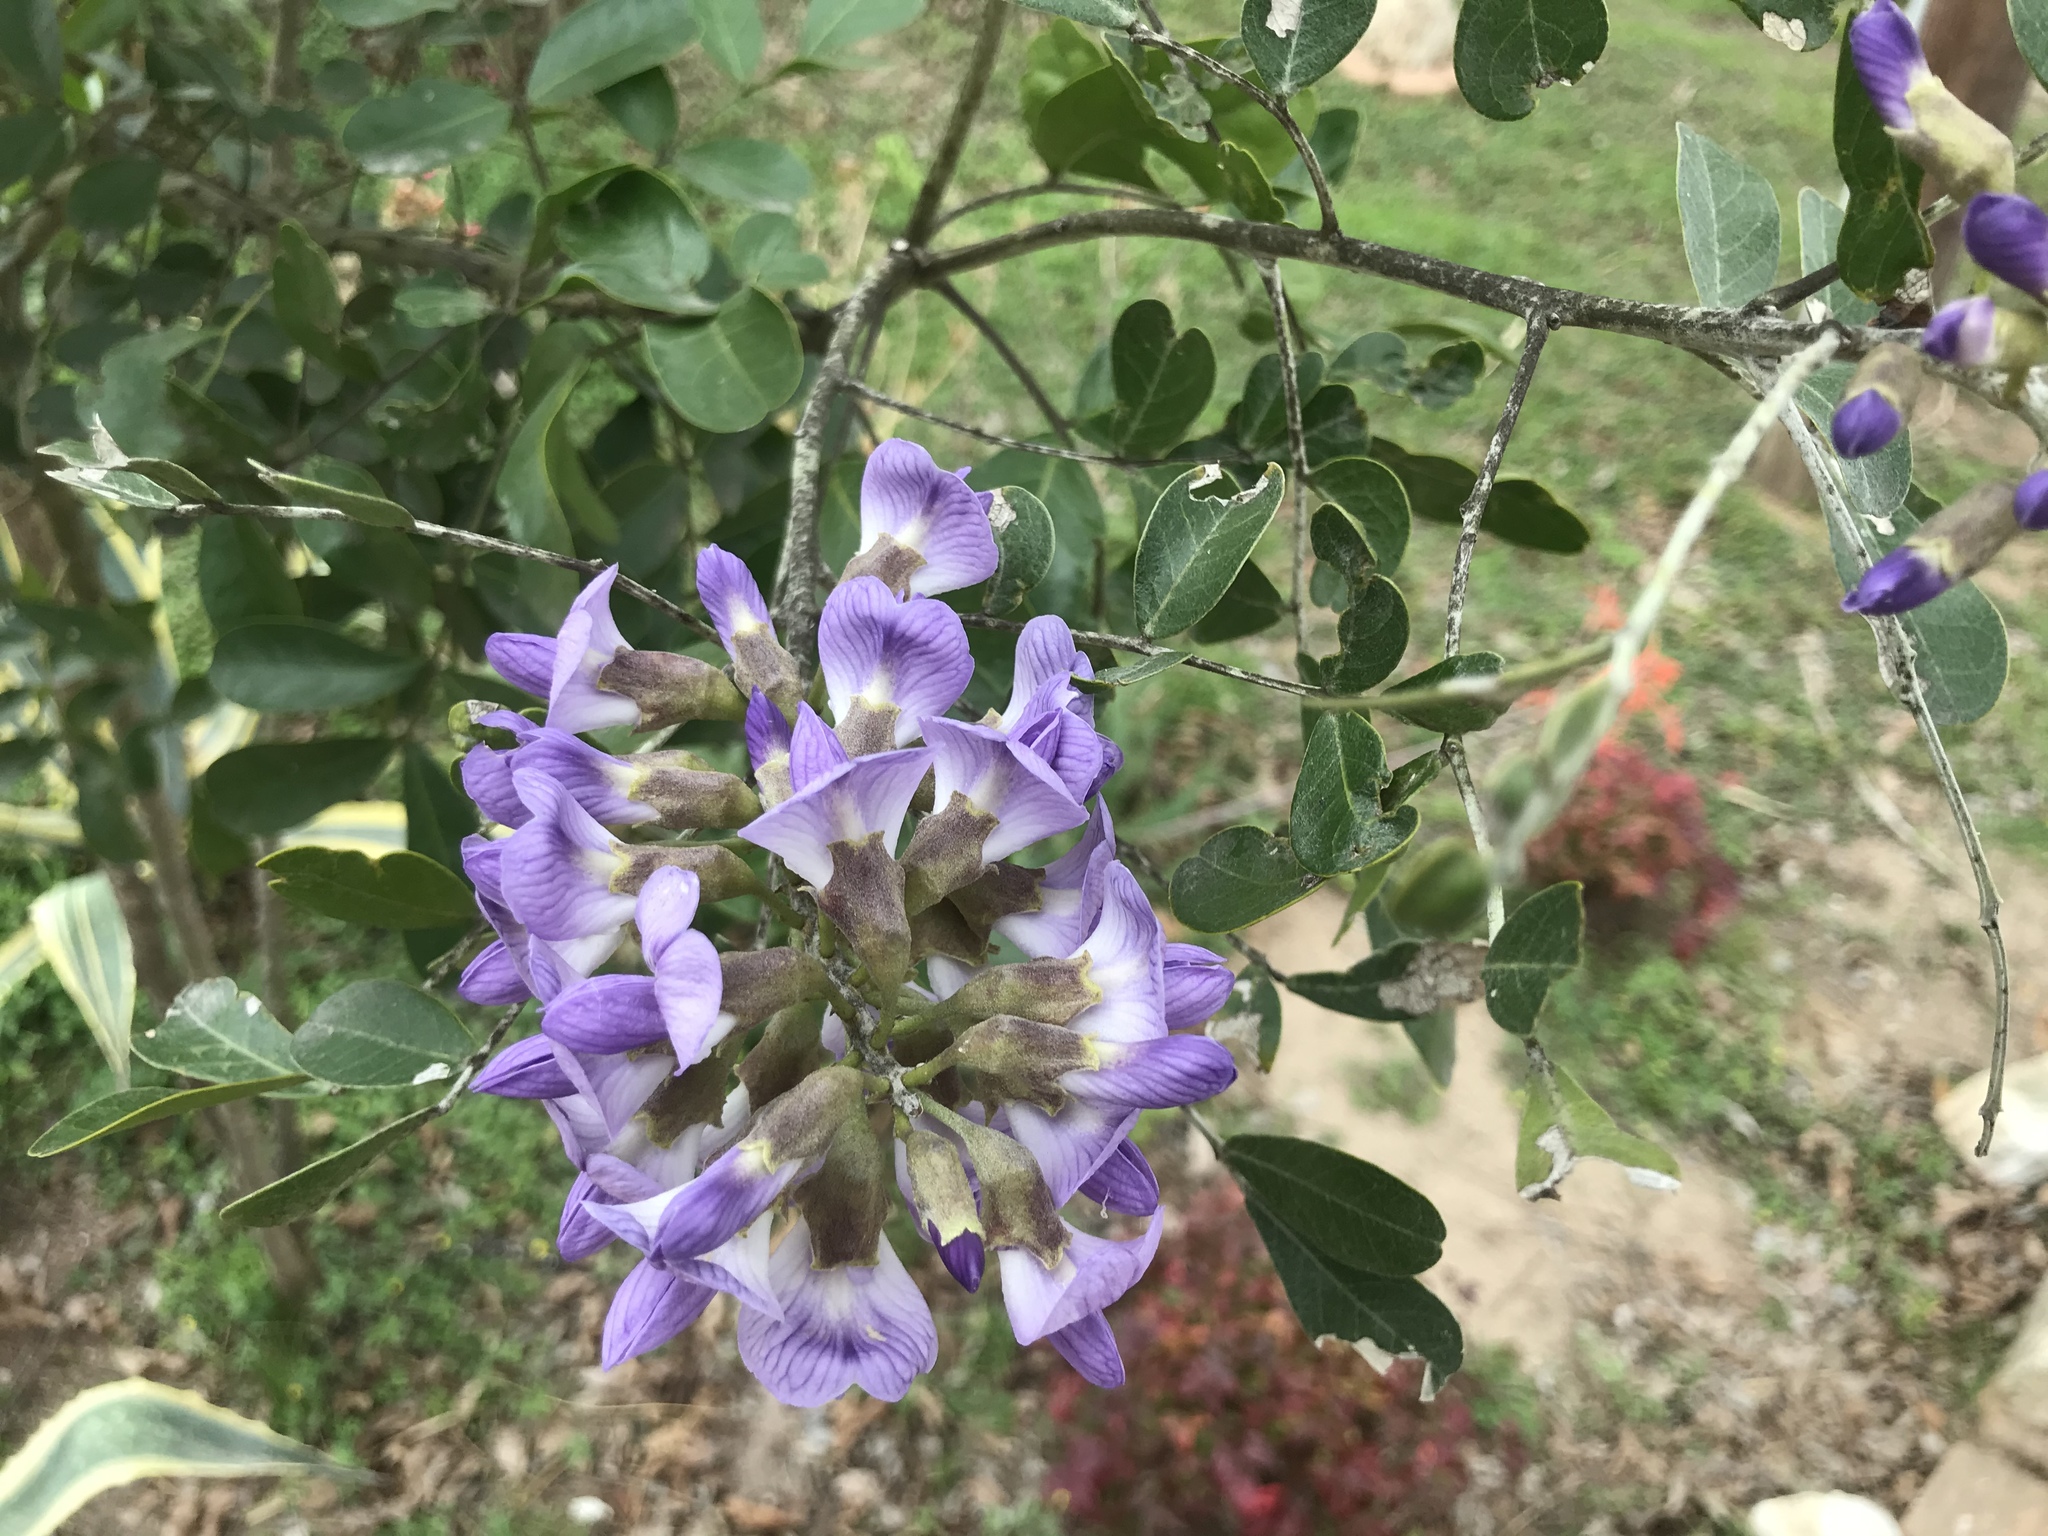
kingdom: Plantae
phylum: Tracheophyta
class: Magnoliopsida
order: Fabales
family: Fabaceae
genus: Dermatophyllum
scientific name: Dermatophyllum secundiflorum
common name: Texas-mountain-laurel
